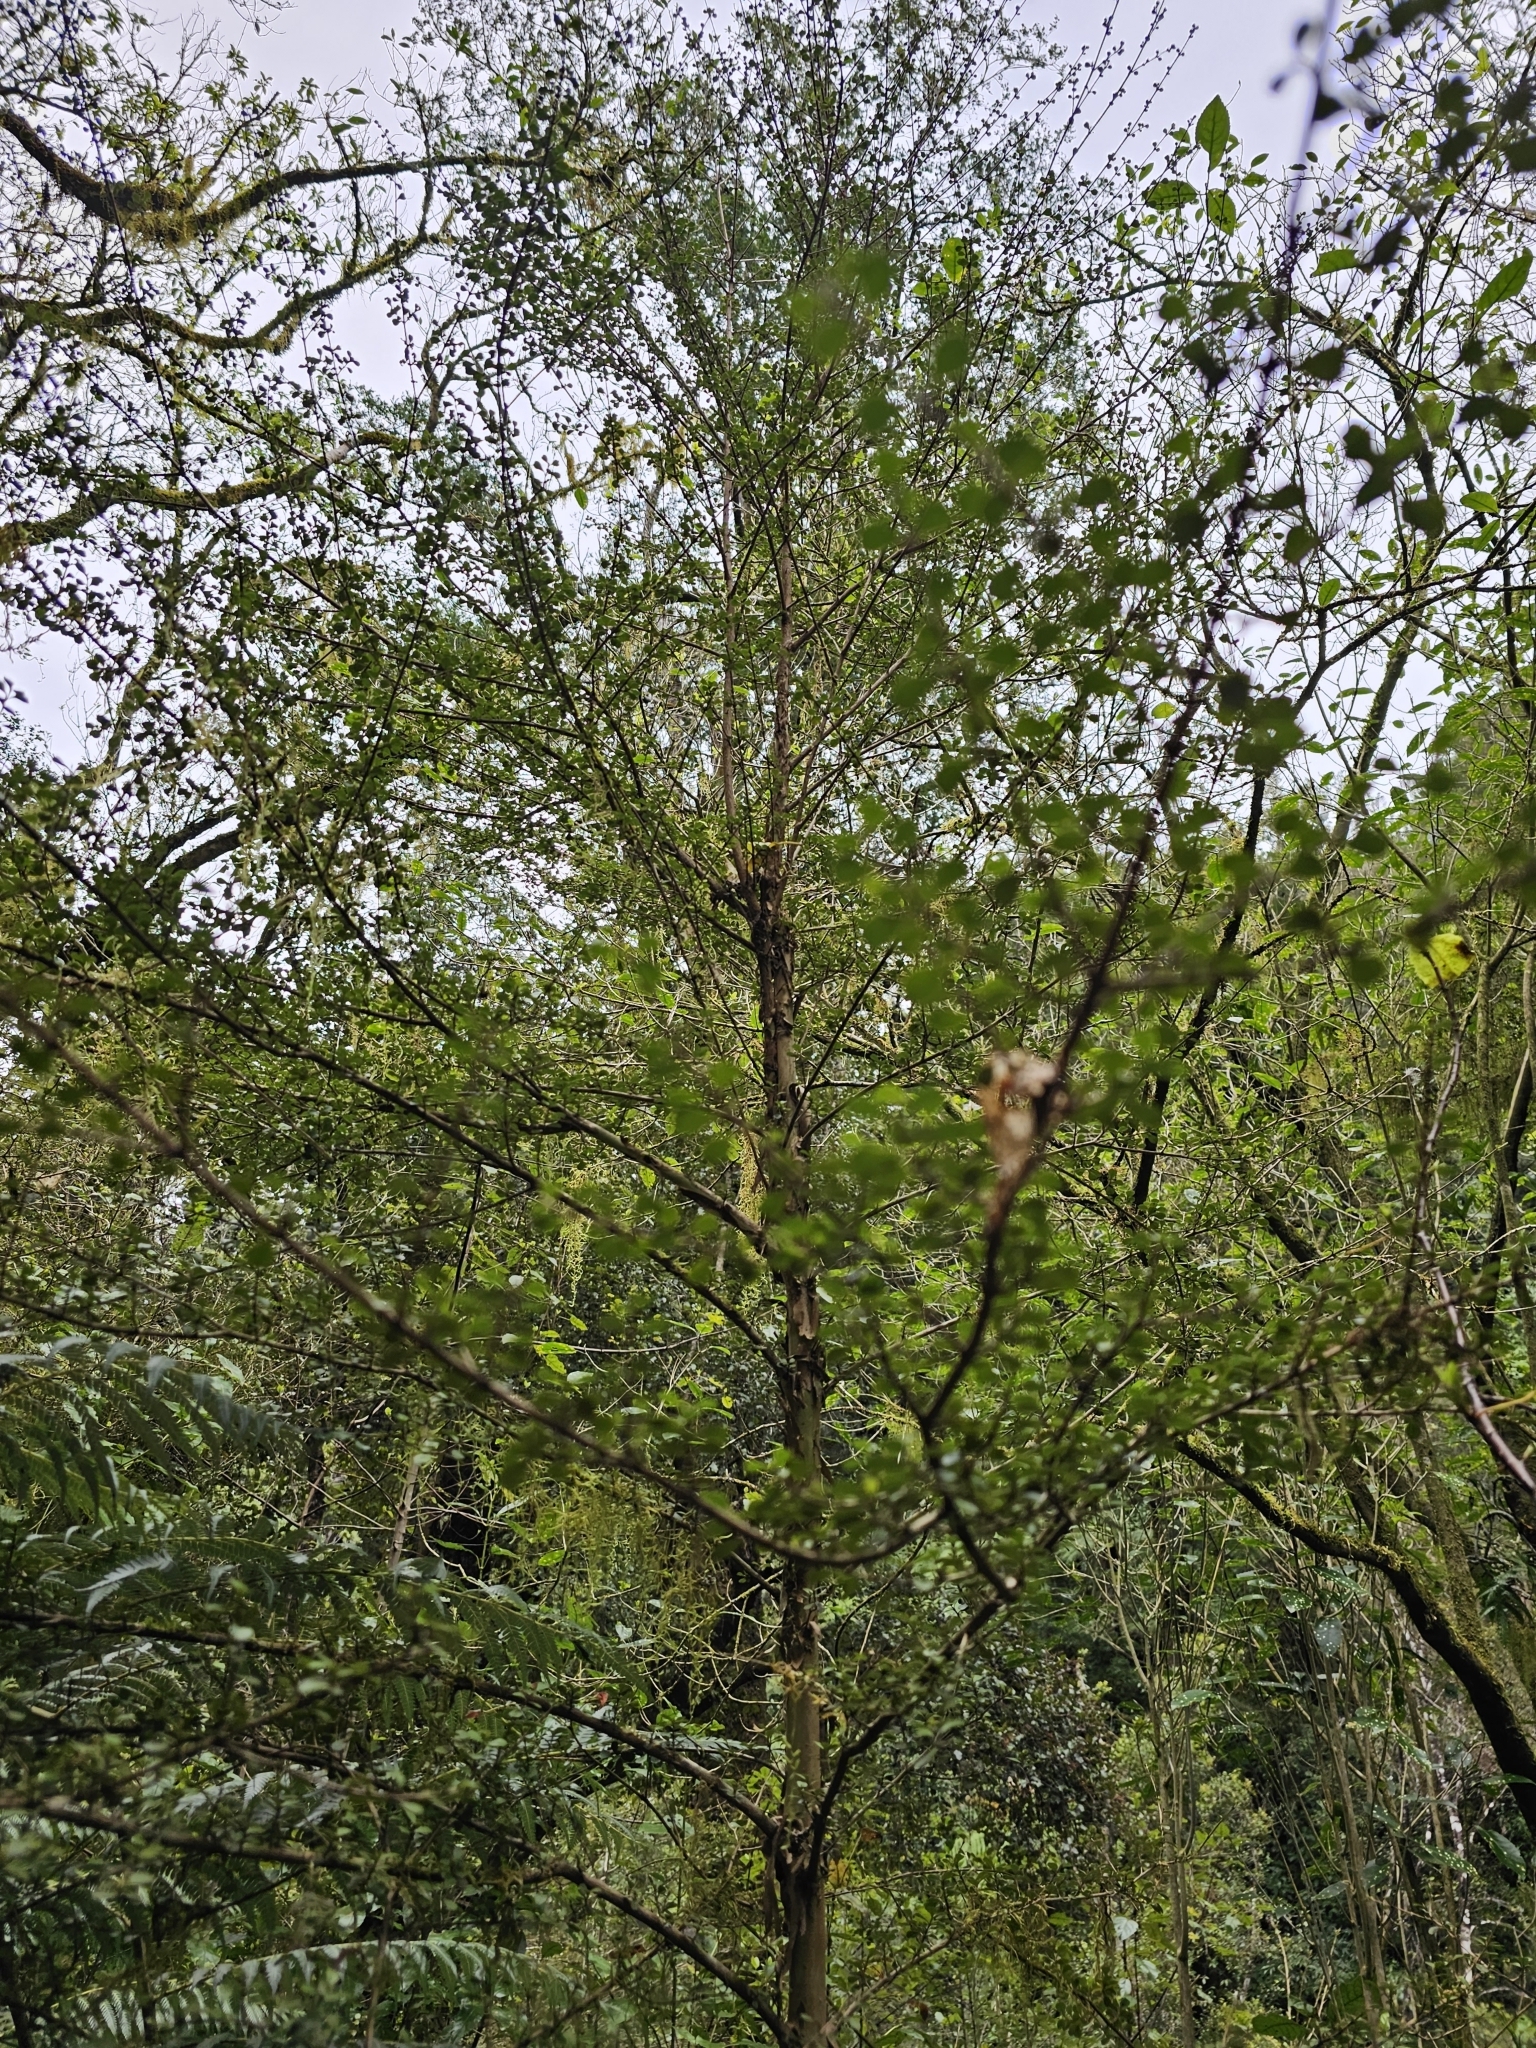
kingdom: Plantae
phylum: Tracheophyta
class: Magnoliopsida
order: Myrtales
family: Myrtaceae
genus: Lophomyrtus
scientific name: Lophomyrtus obcordata
